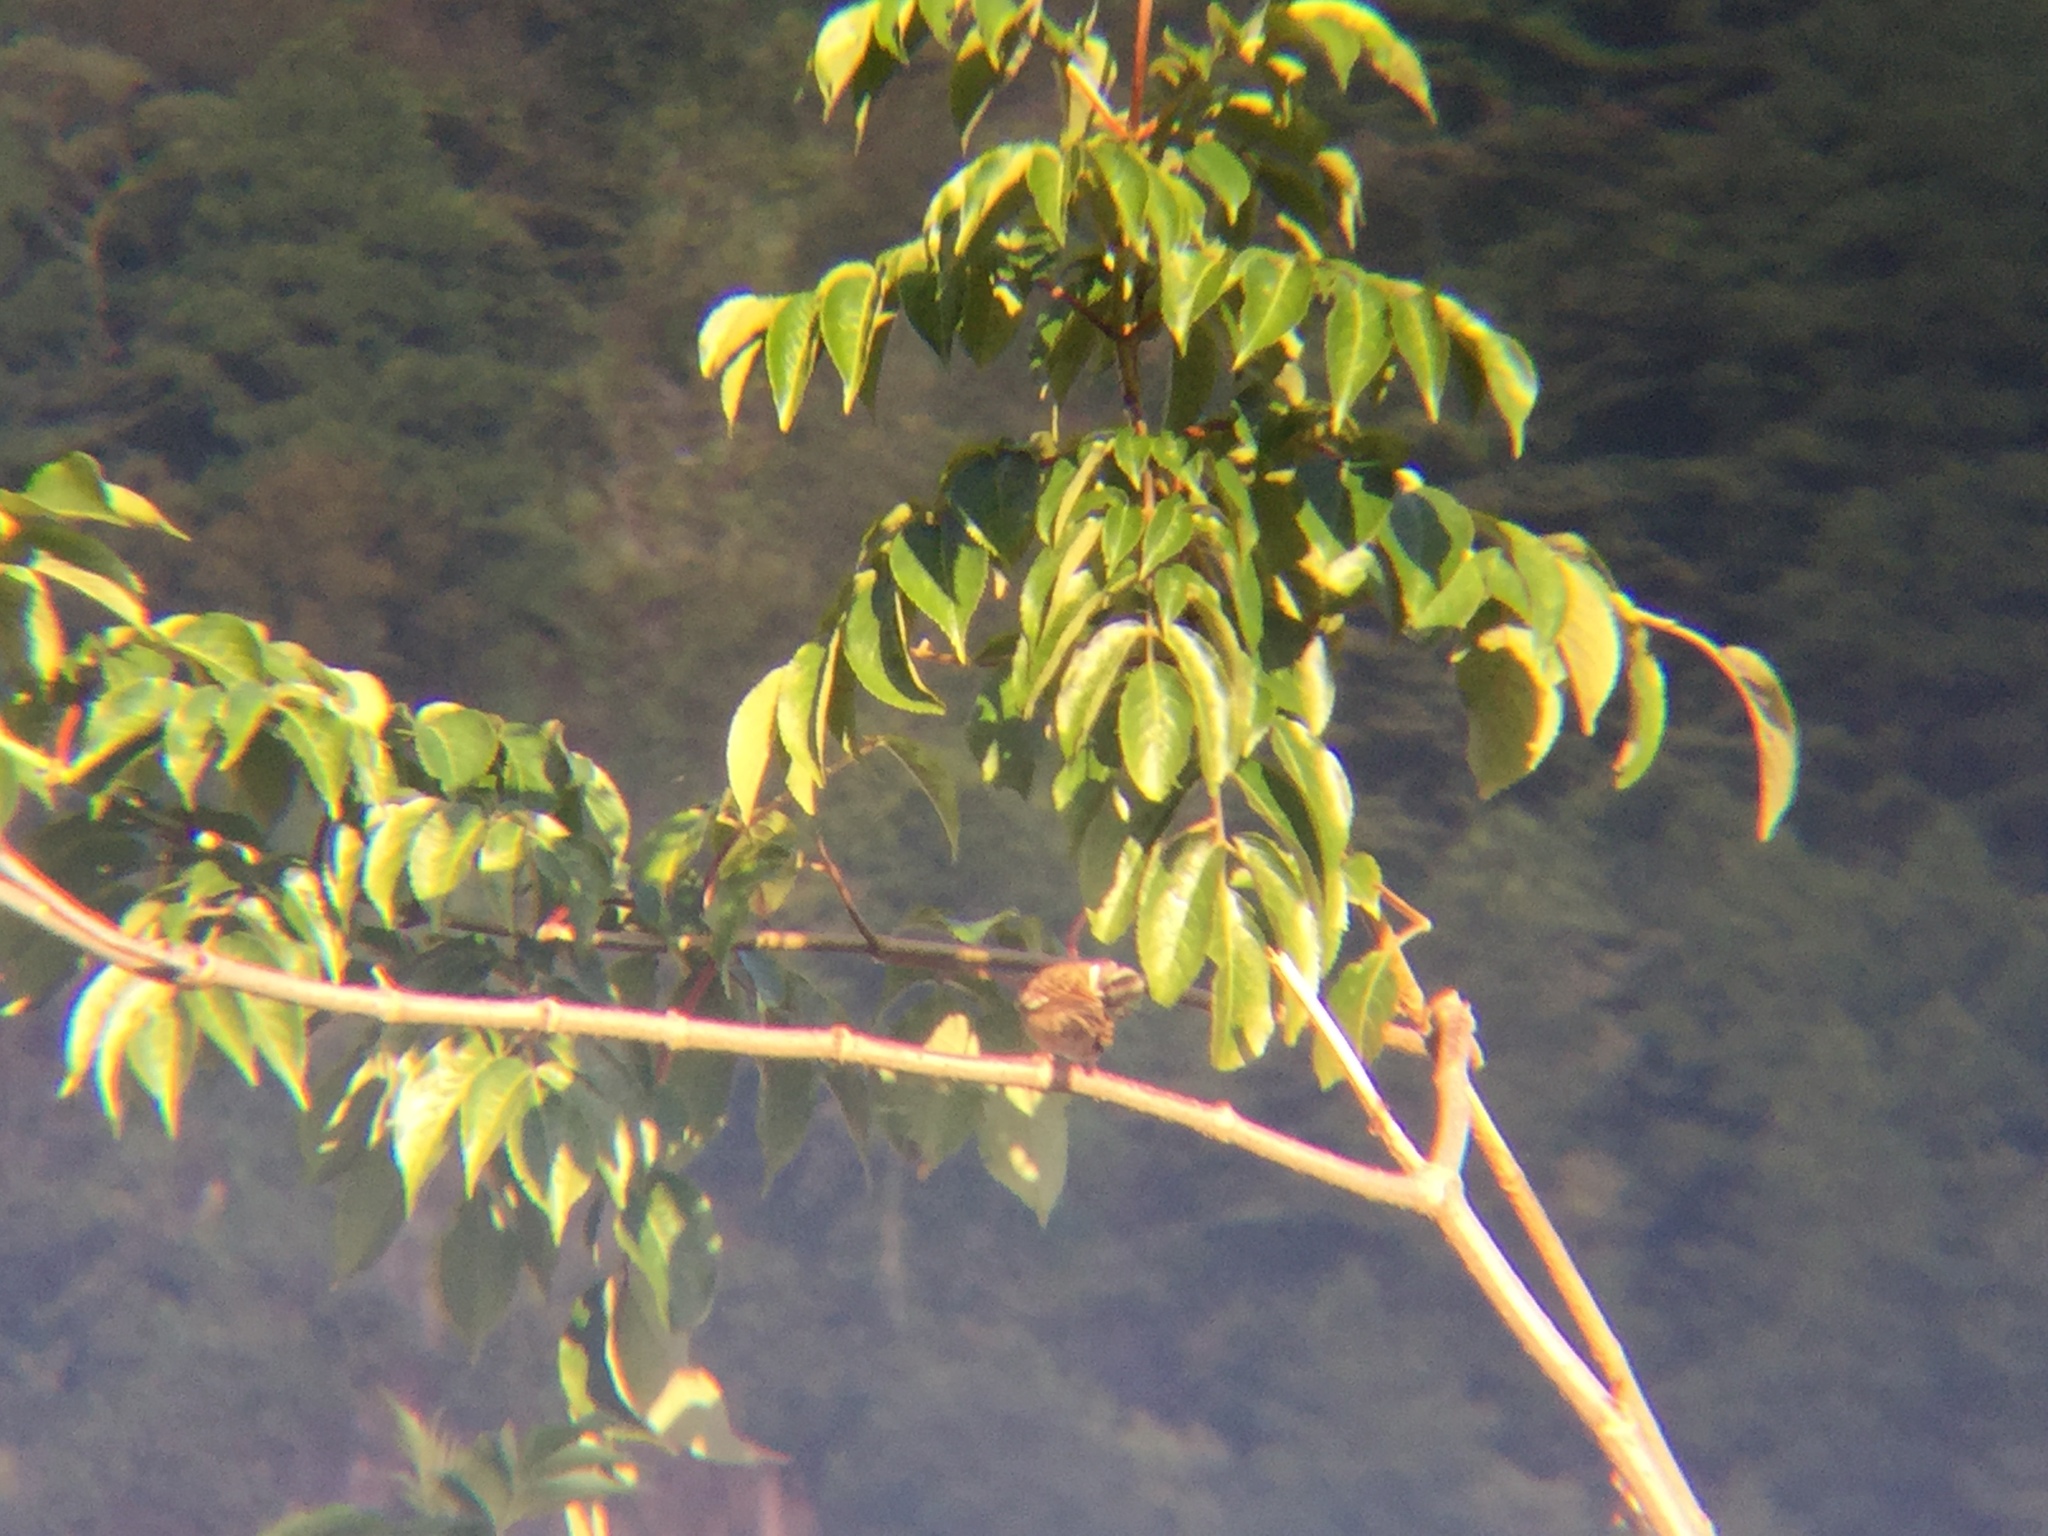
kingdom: Animalia
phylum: Chordata
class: Aves
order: Passeriformes
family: Passerellidae
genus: Zonotrichia
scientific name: Zonotrichia capensis
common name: Rufous-collared sparrow
